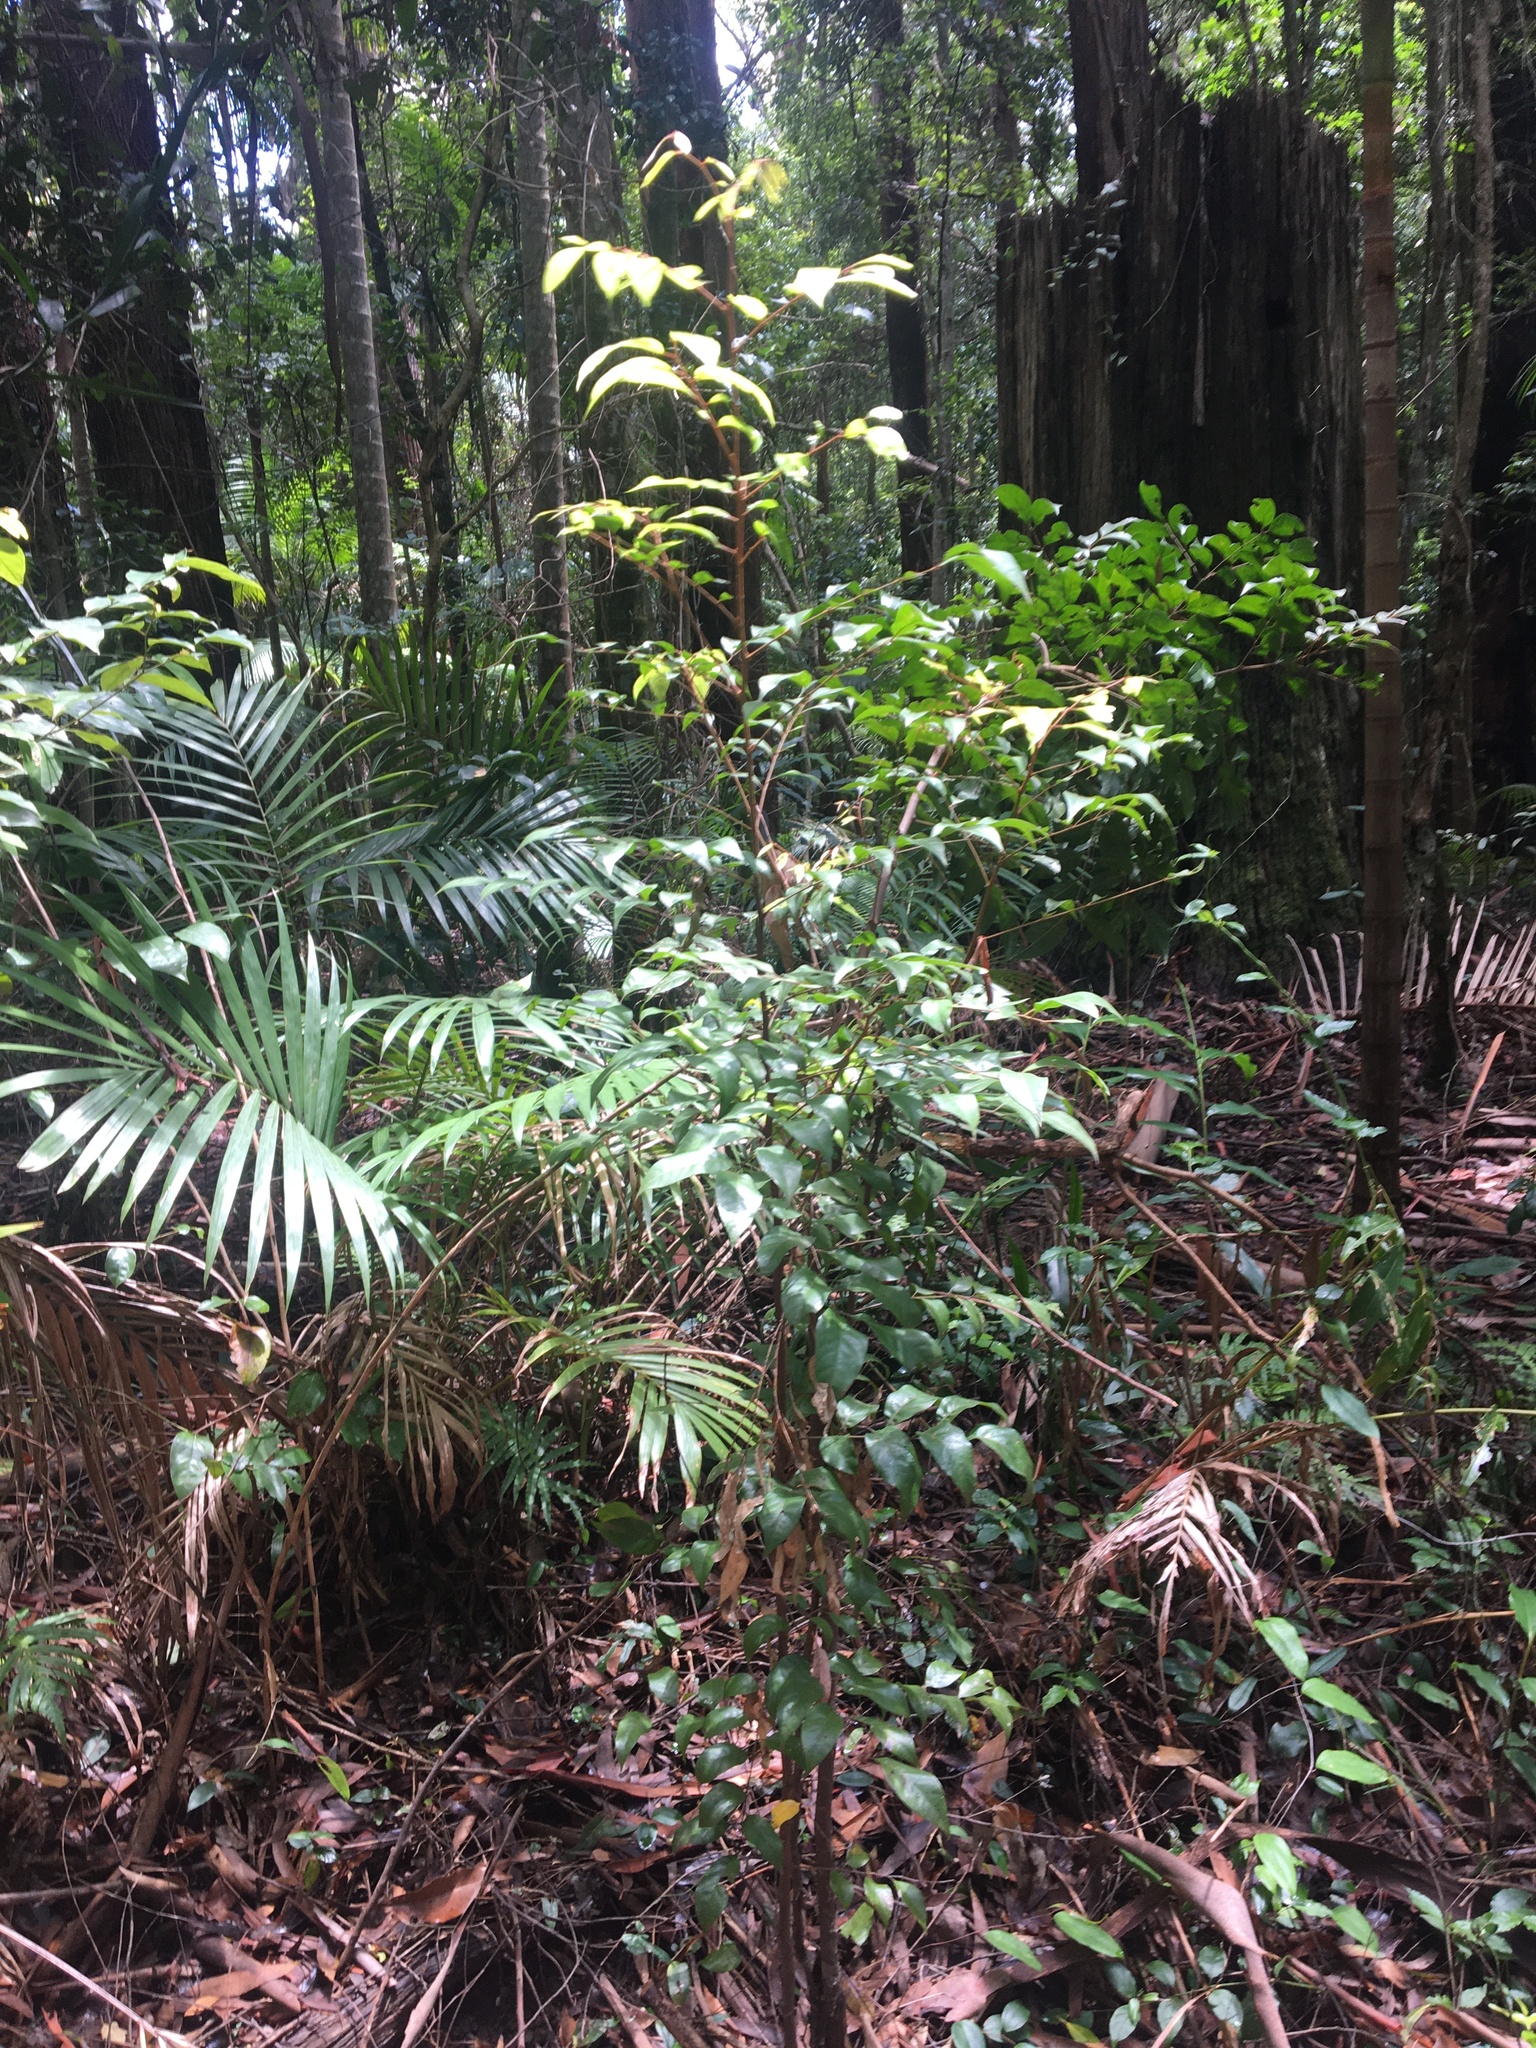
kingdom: Plantae
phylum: Tracheophyta
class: Magnoliopsida
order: Sapindales
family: Sapindaceae
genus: Sarcopteryx
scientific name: Sarcopteryx stipata
